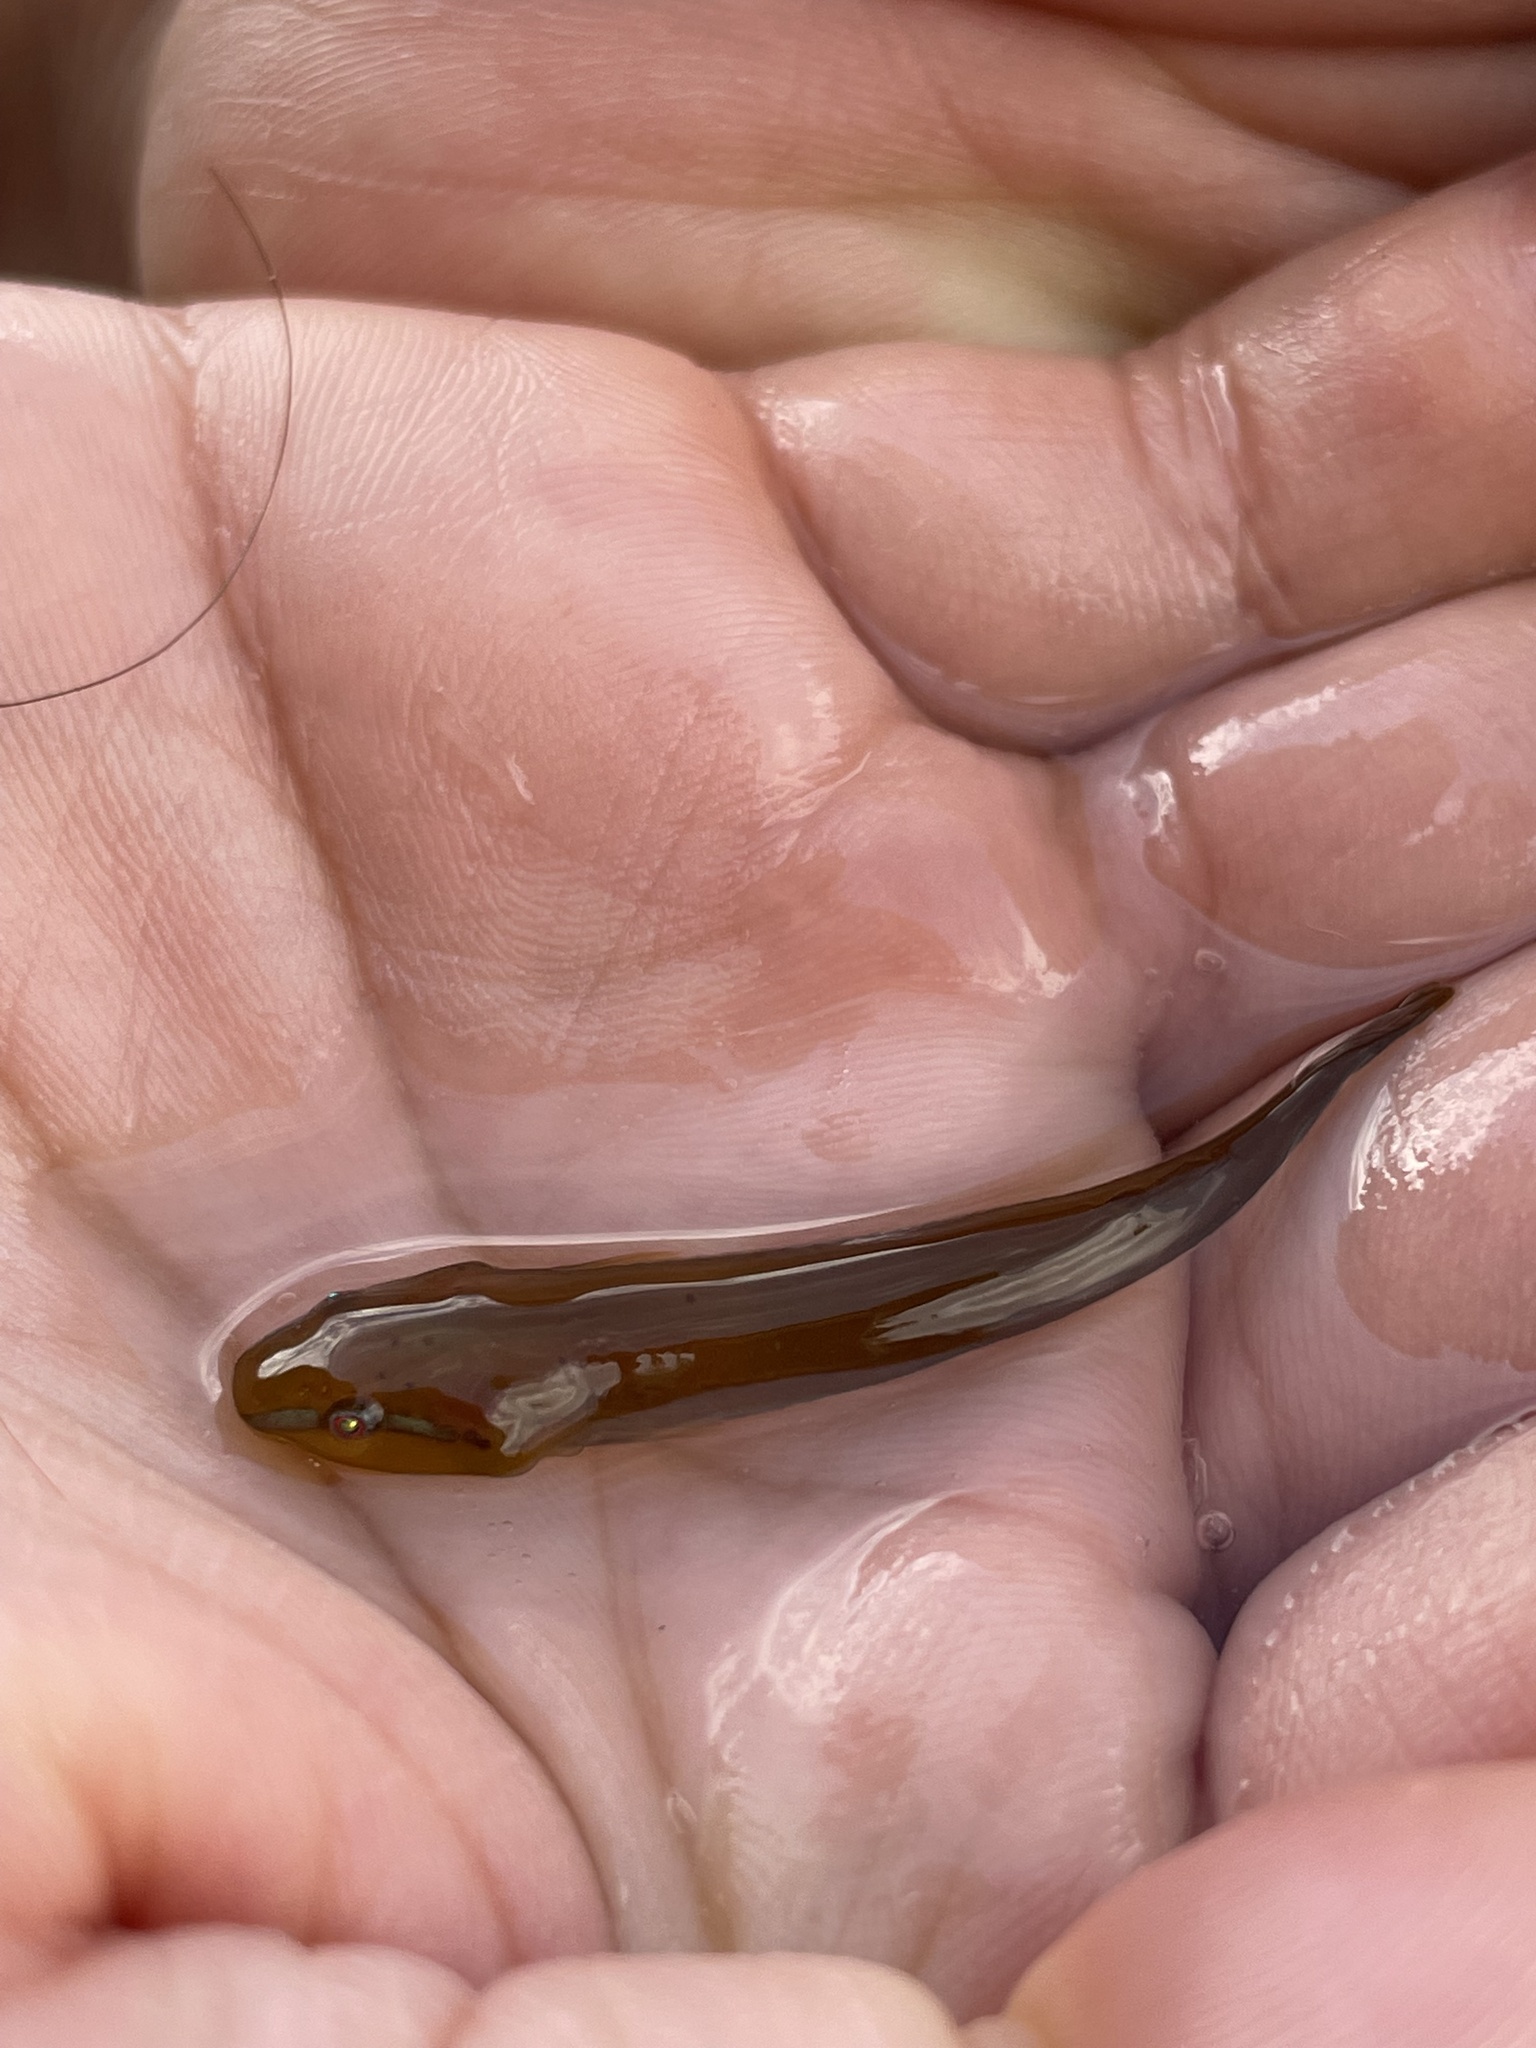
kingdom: Animalia
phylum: Chordata
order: Gobiesociformes
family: Gobiesocidae
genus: Rimicola
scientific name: Rimicola muscarum
